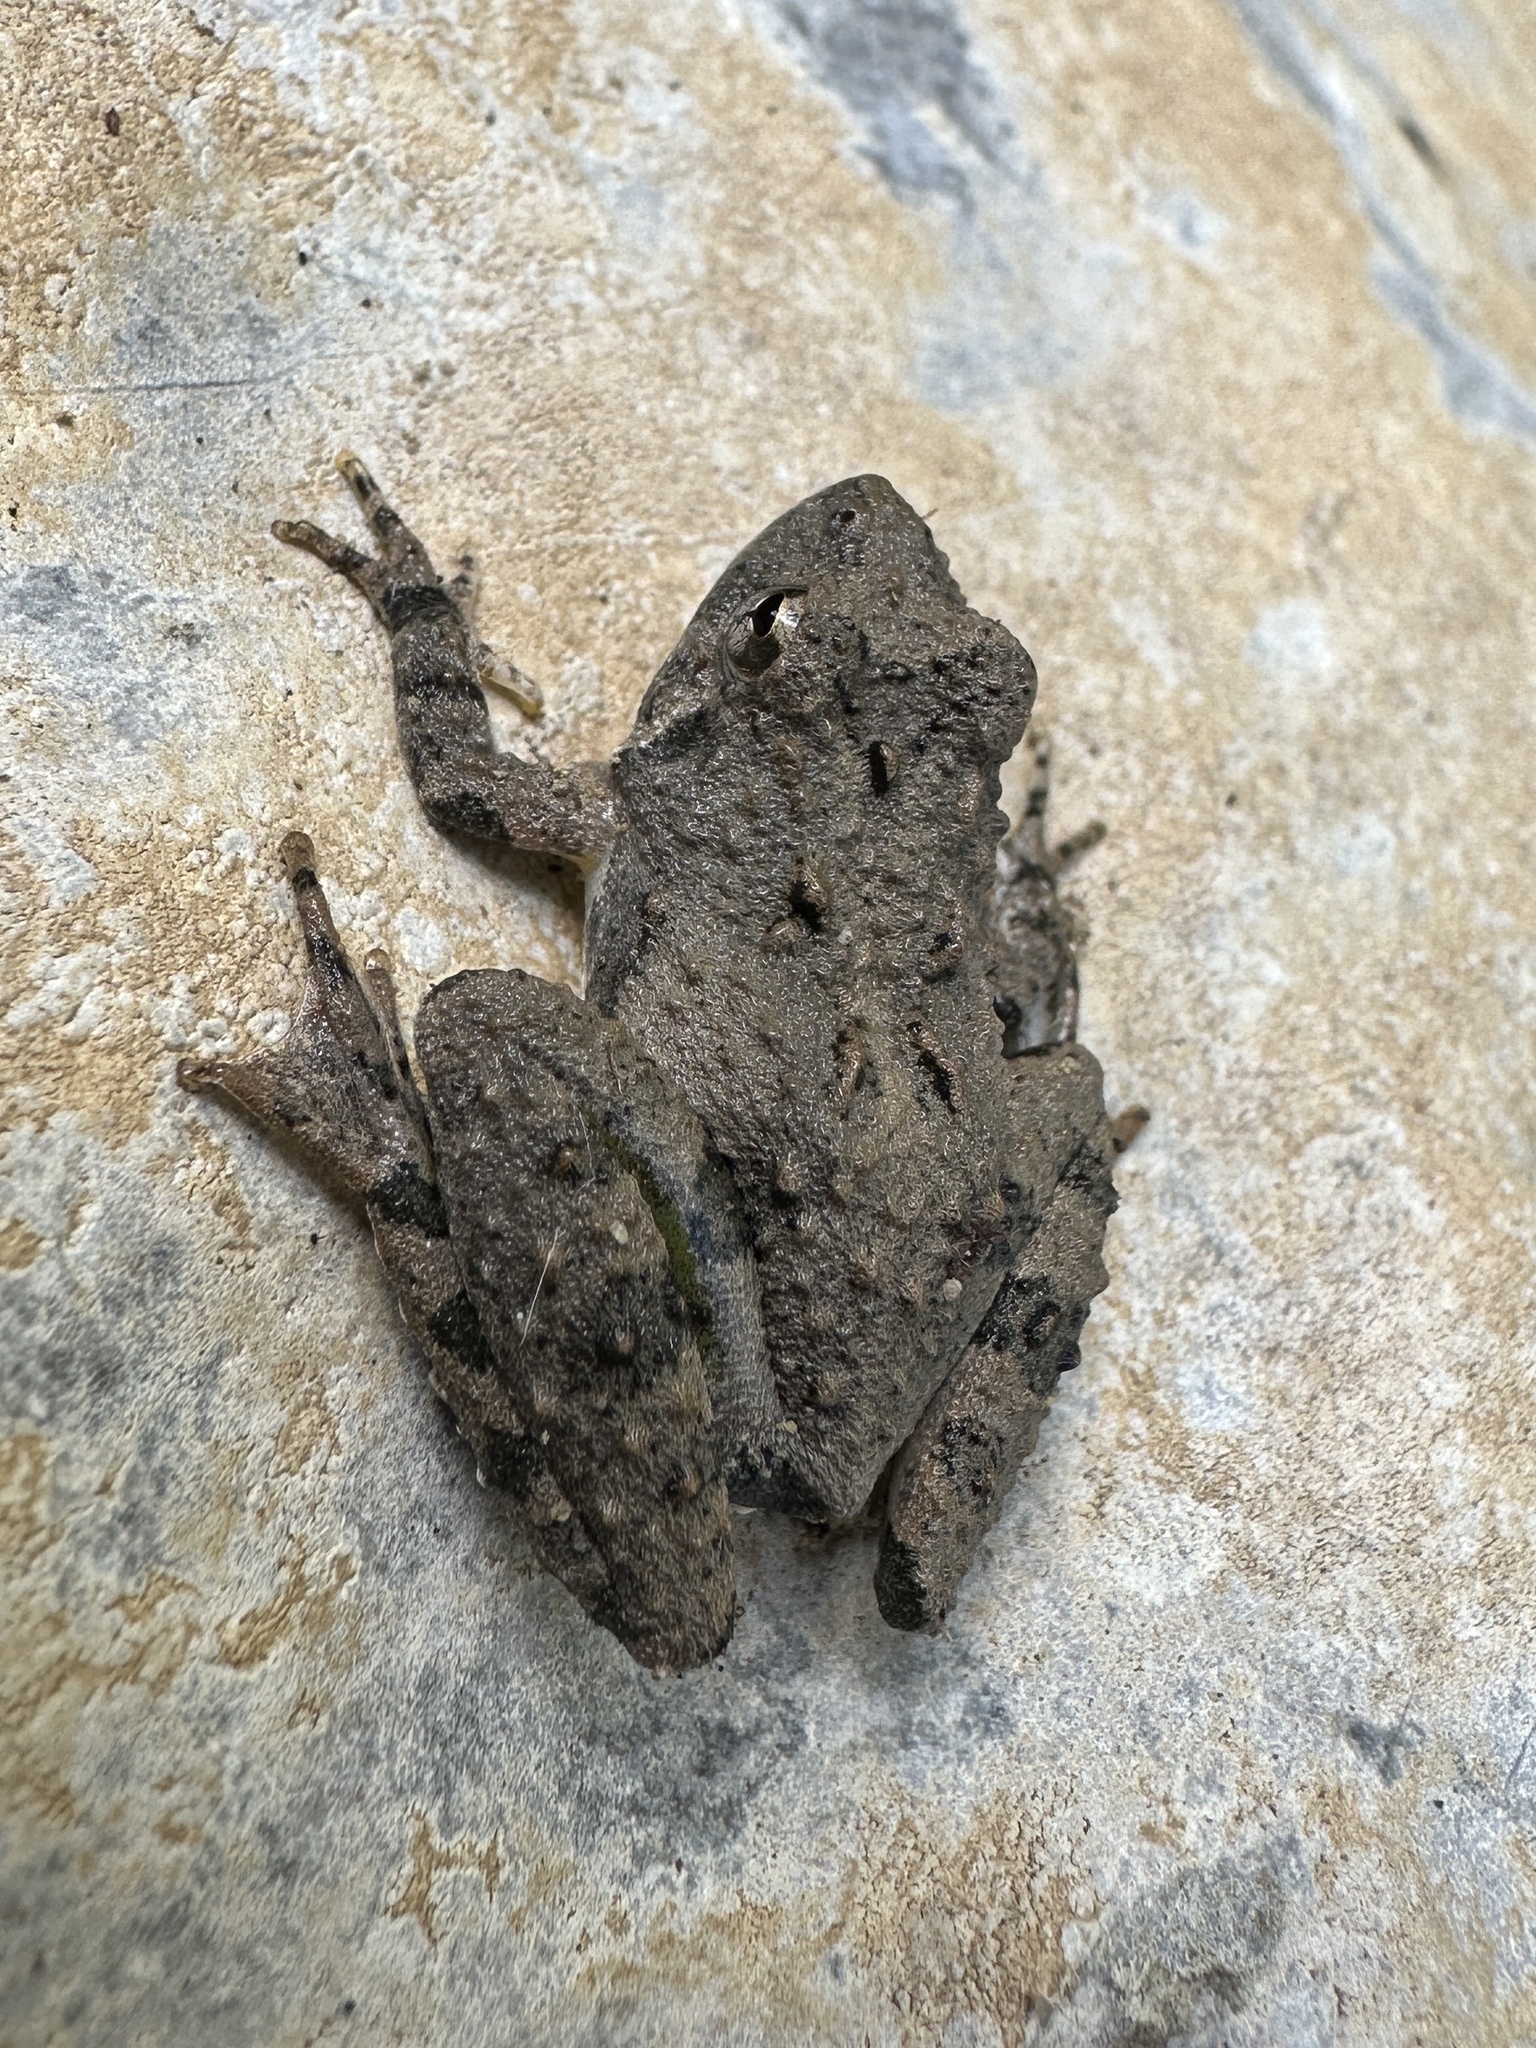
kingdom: Animalia
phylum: Chordata
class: Amphibia
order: Anura
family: Hylidae
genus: Acris
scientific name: Acris crepitans
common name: Northern cricket frog
